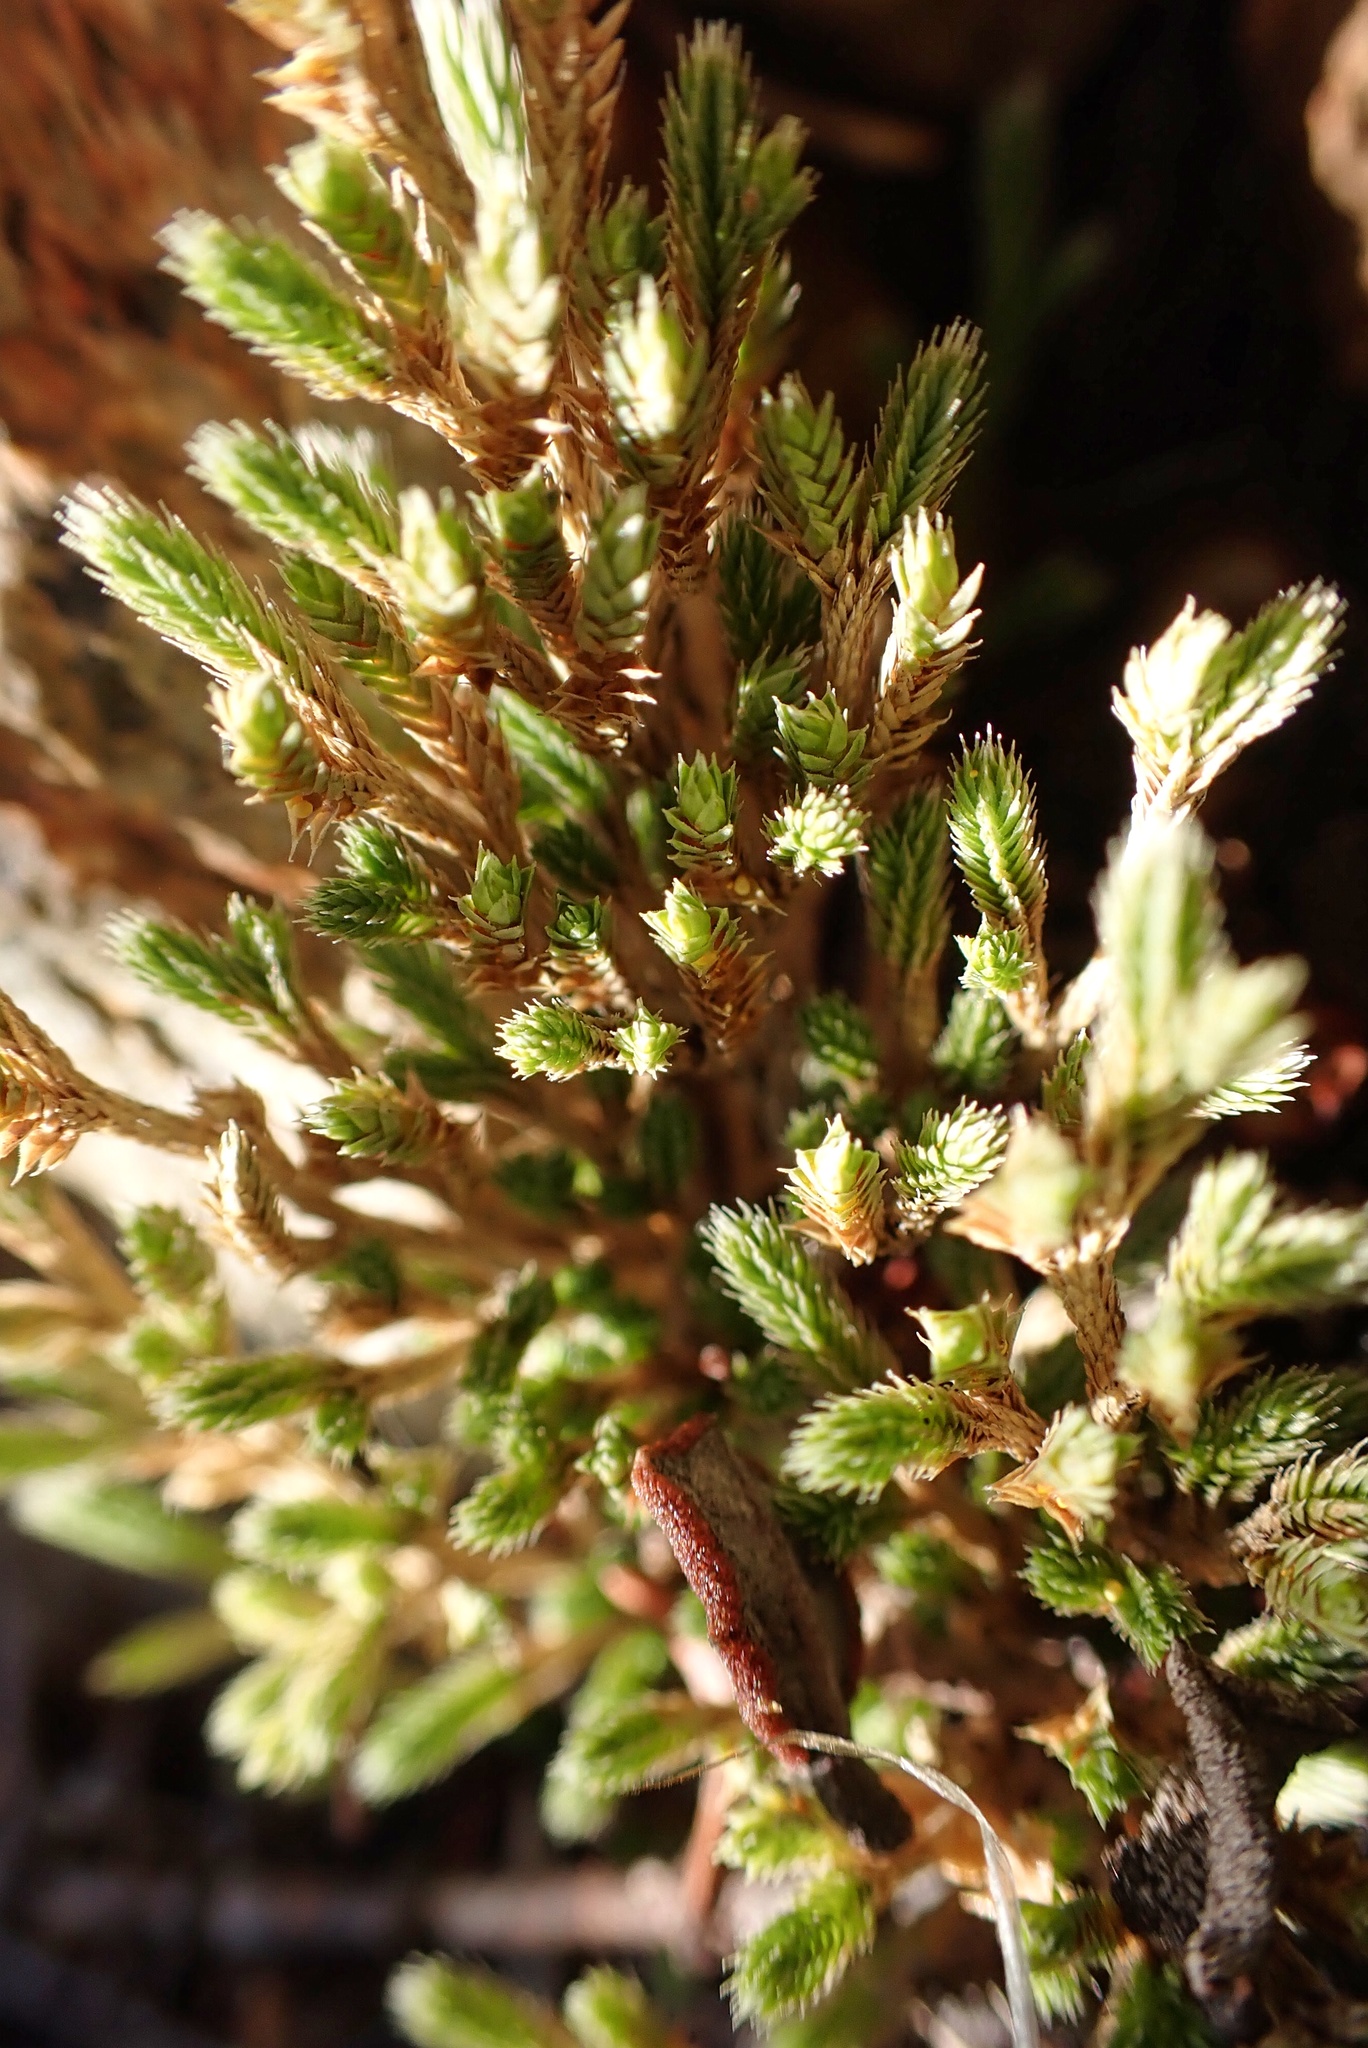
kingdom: Plantae
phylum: Tracheophyta
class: Lycopodiopsida
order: Selaginellales
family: Selaginellaceae
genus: Selaginella
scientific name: Selaginella bigelovii
